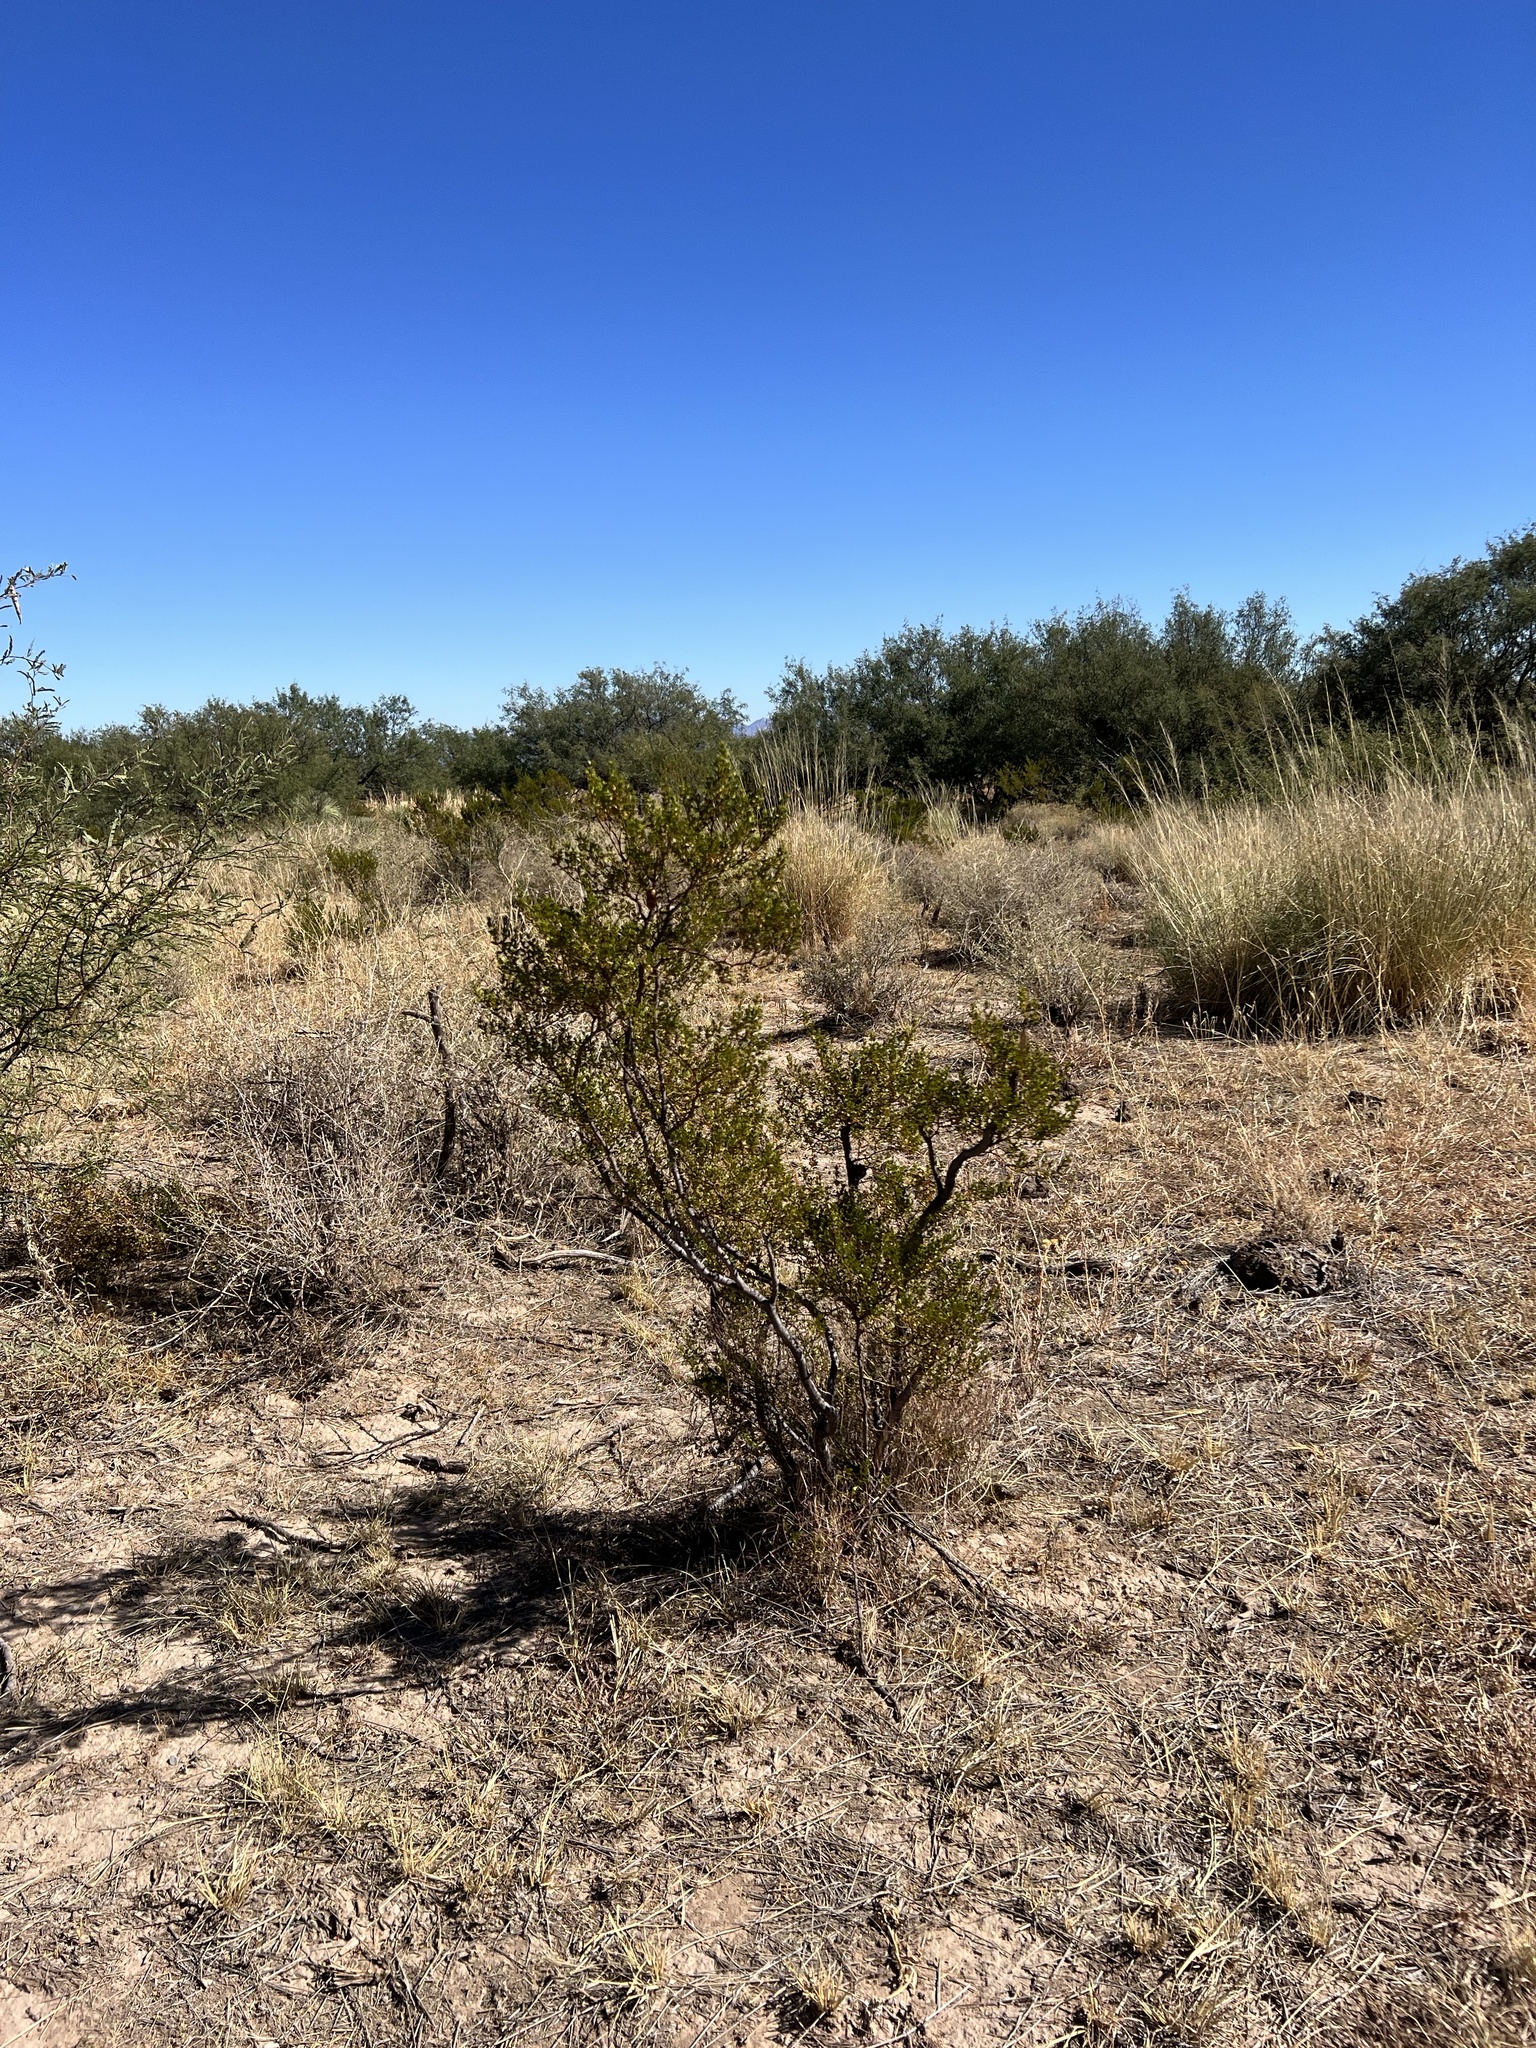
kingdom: Plantae
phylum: Tracheophyta
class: Magnoliopsida
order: Zygophyllales
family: Zygophyllaceae
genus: Larrea
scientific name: Larrea tridentata
